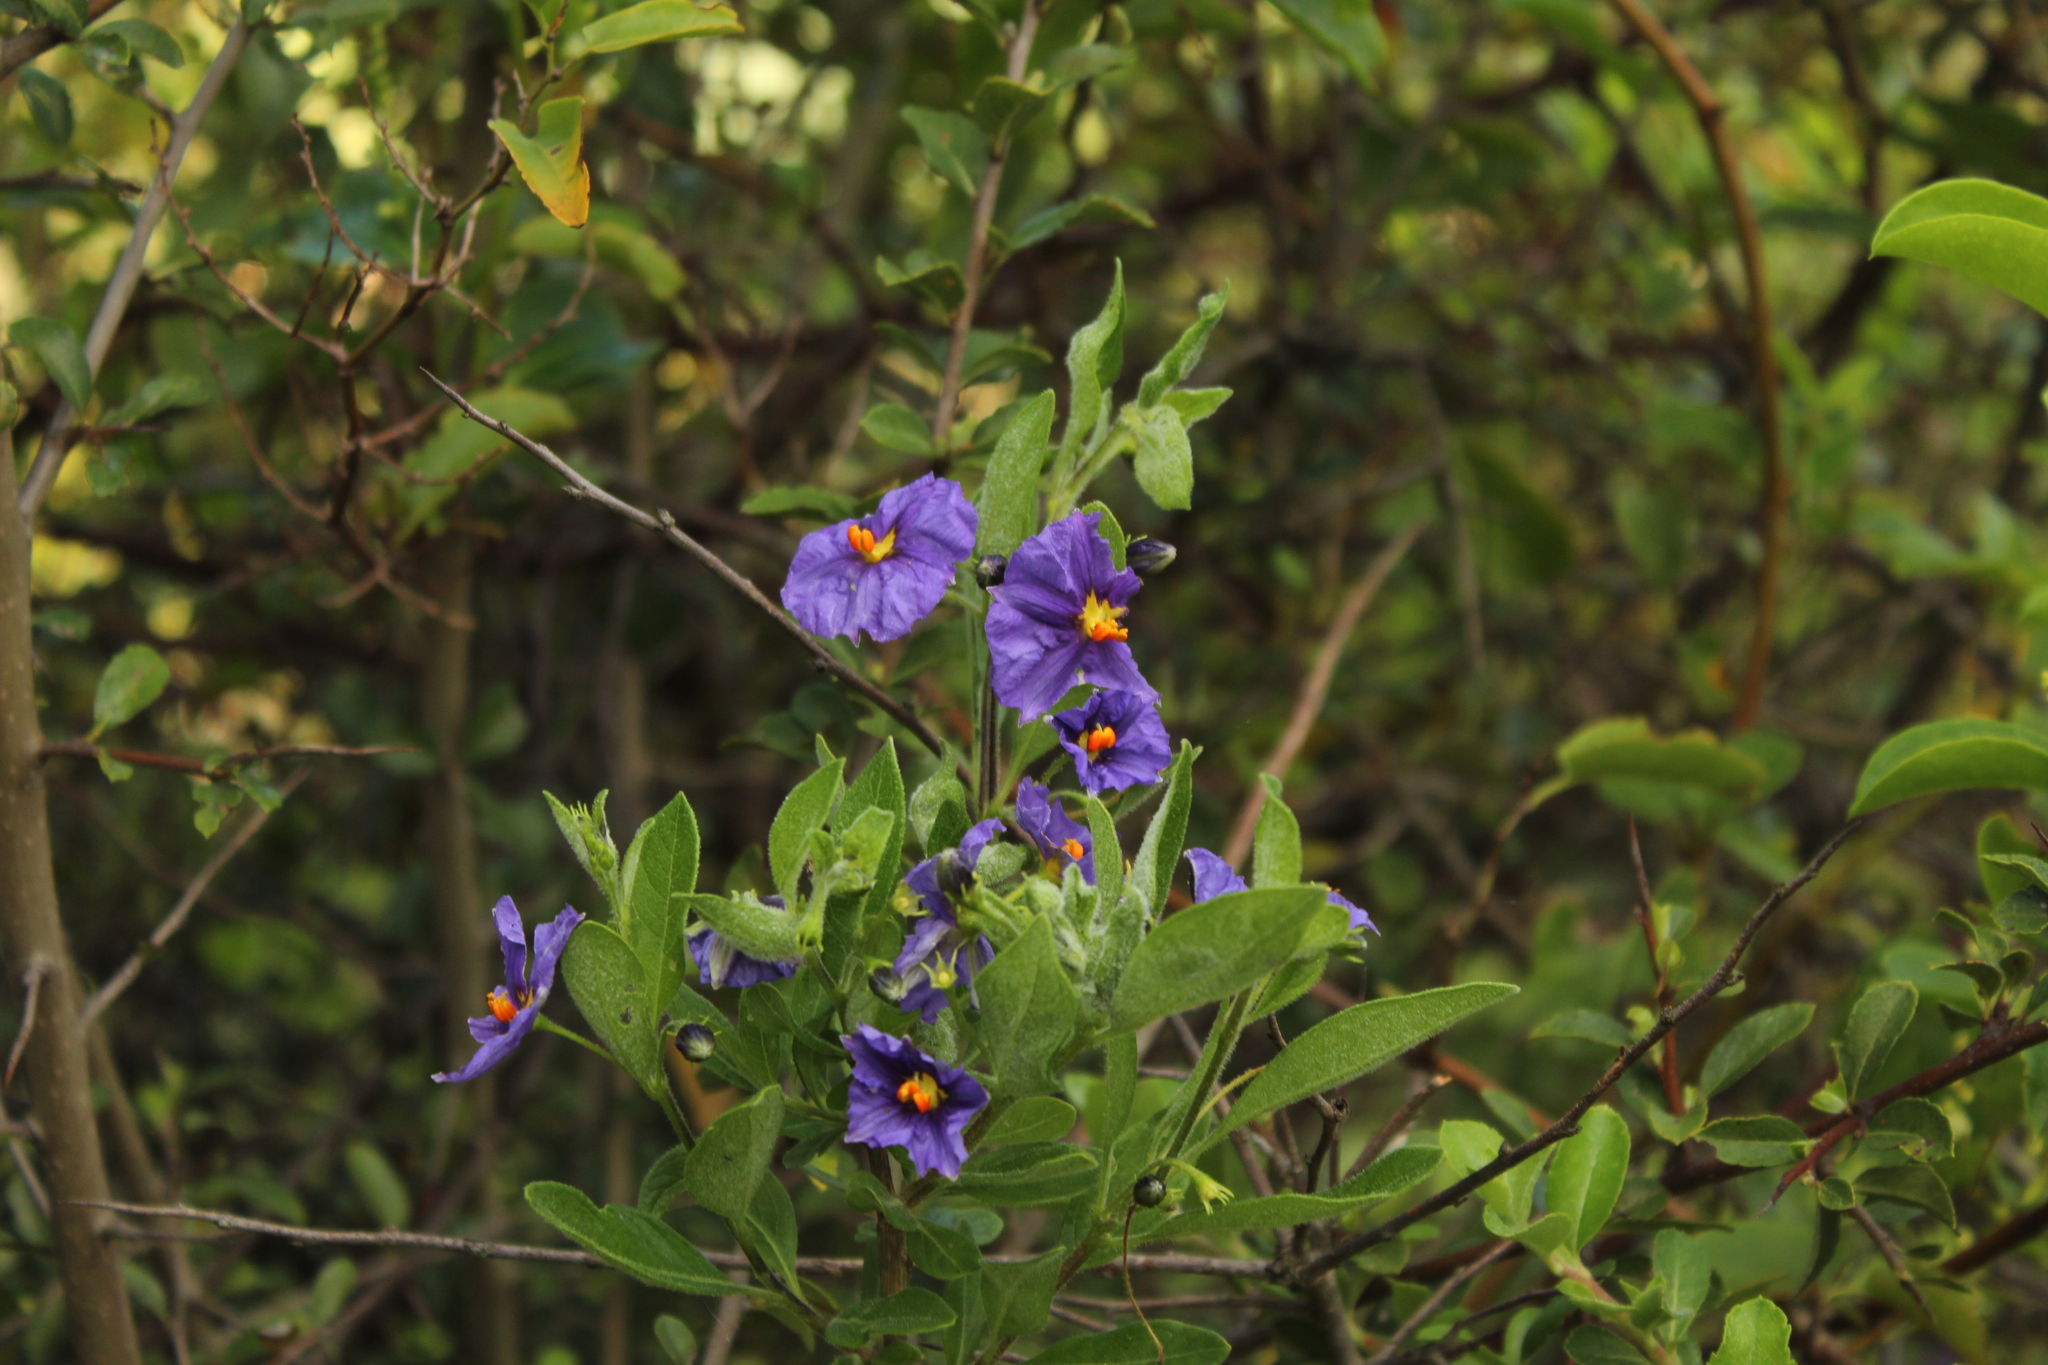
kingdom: Plantae
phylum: Tracheophyta
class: Magnoliopsida
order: Solanales
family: Solanaceae
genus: Lycianthes
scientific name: Lycianthes lycioides
